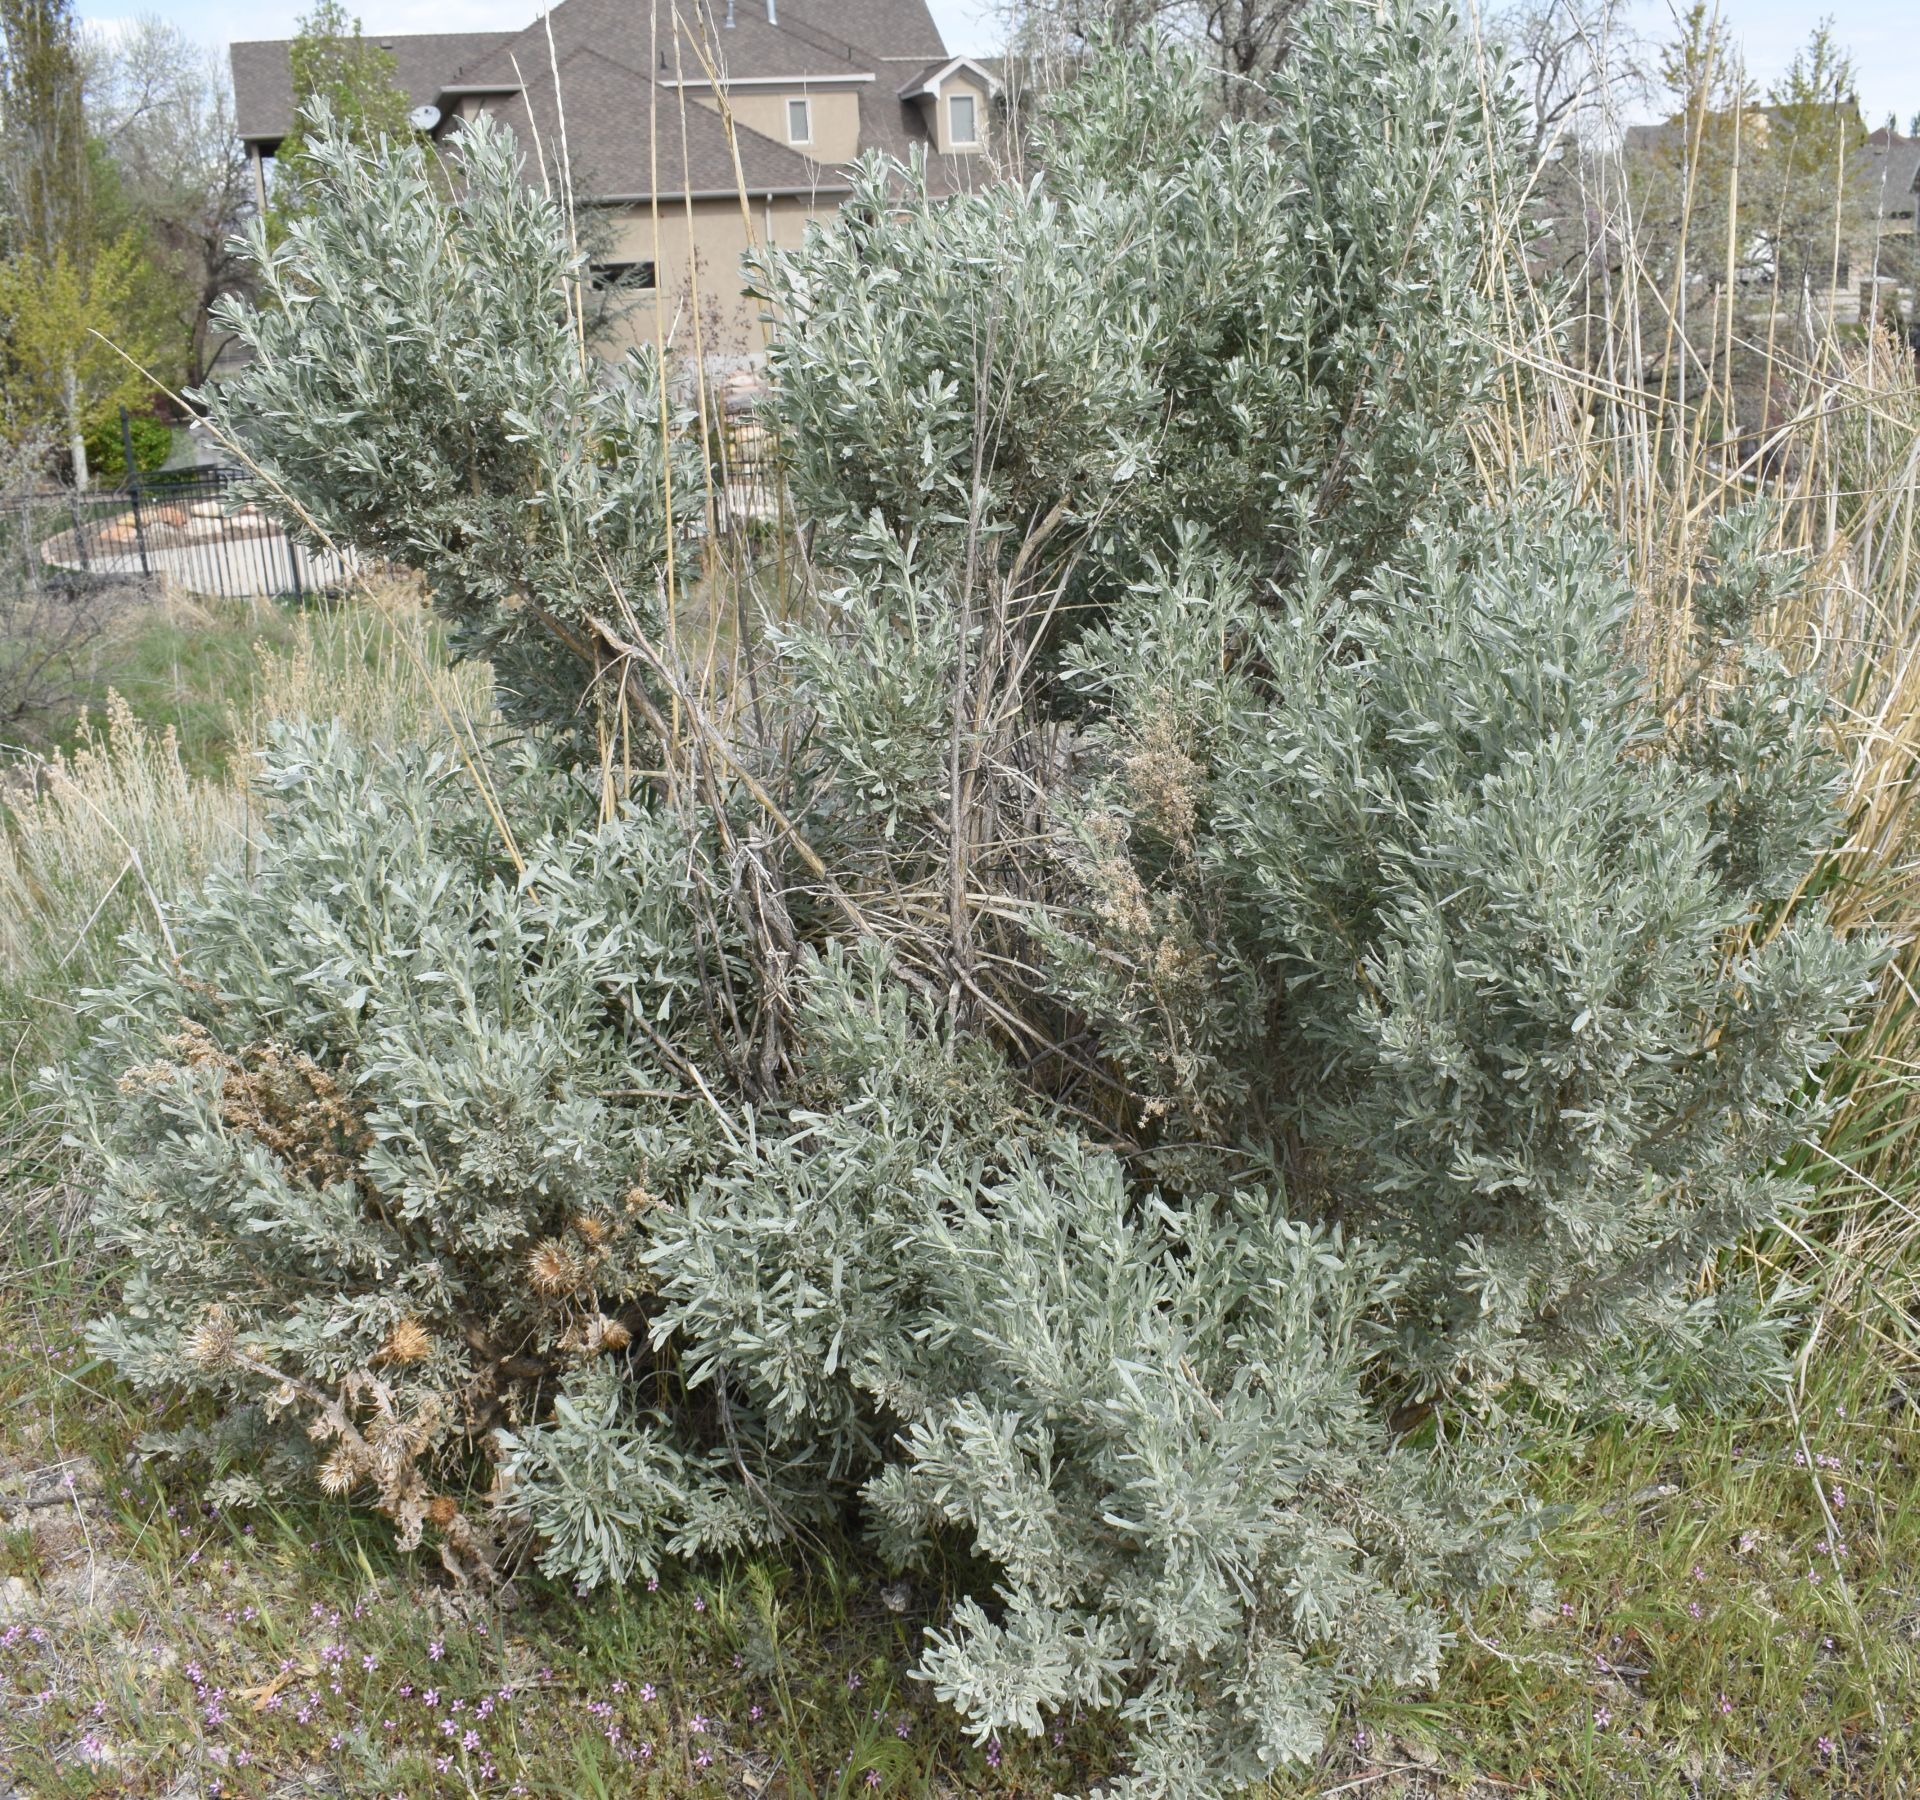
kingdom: Plantae
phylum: Tracheophyta
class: Magnoliopsida
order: Asterales
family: Asteraceae
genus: Artemisia
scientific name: Artemisia tridentata
